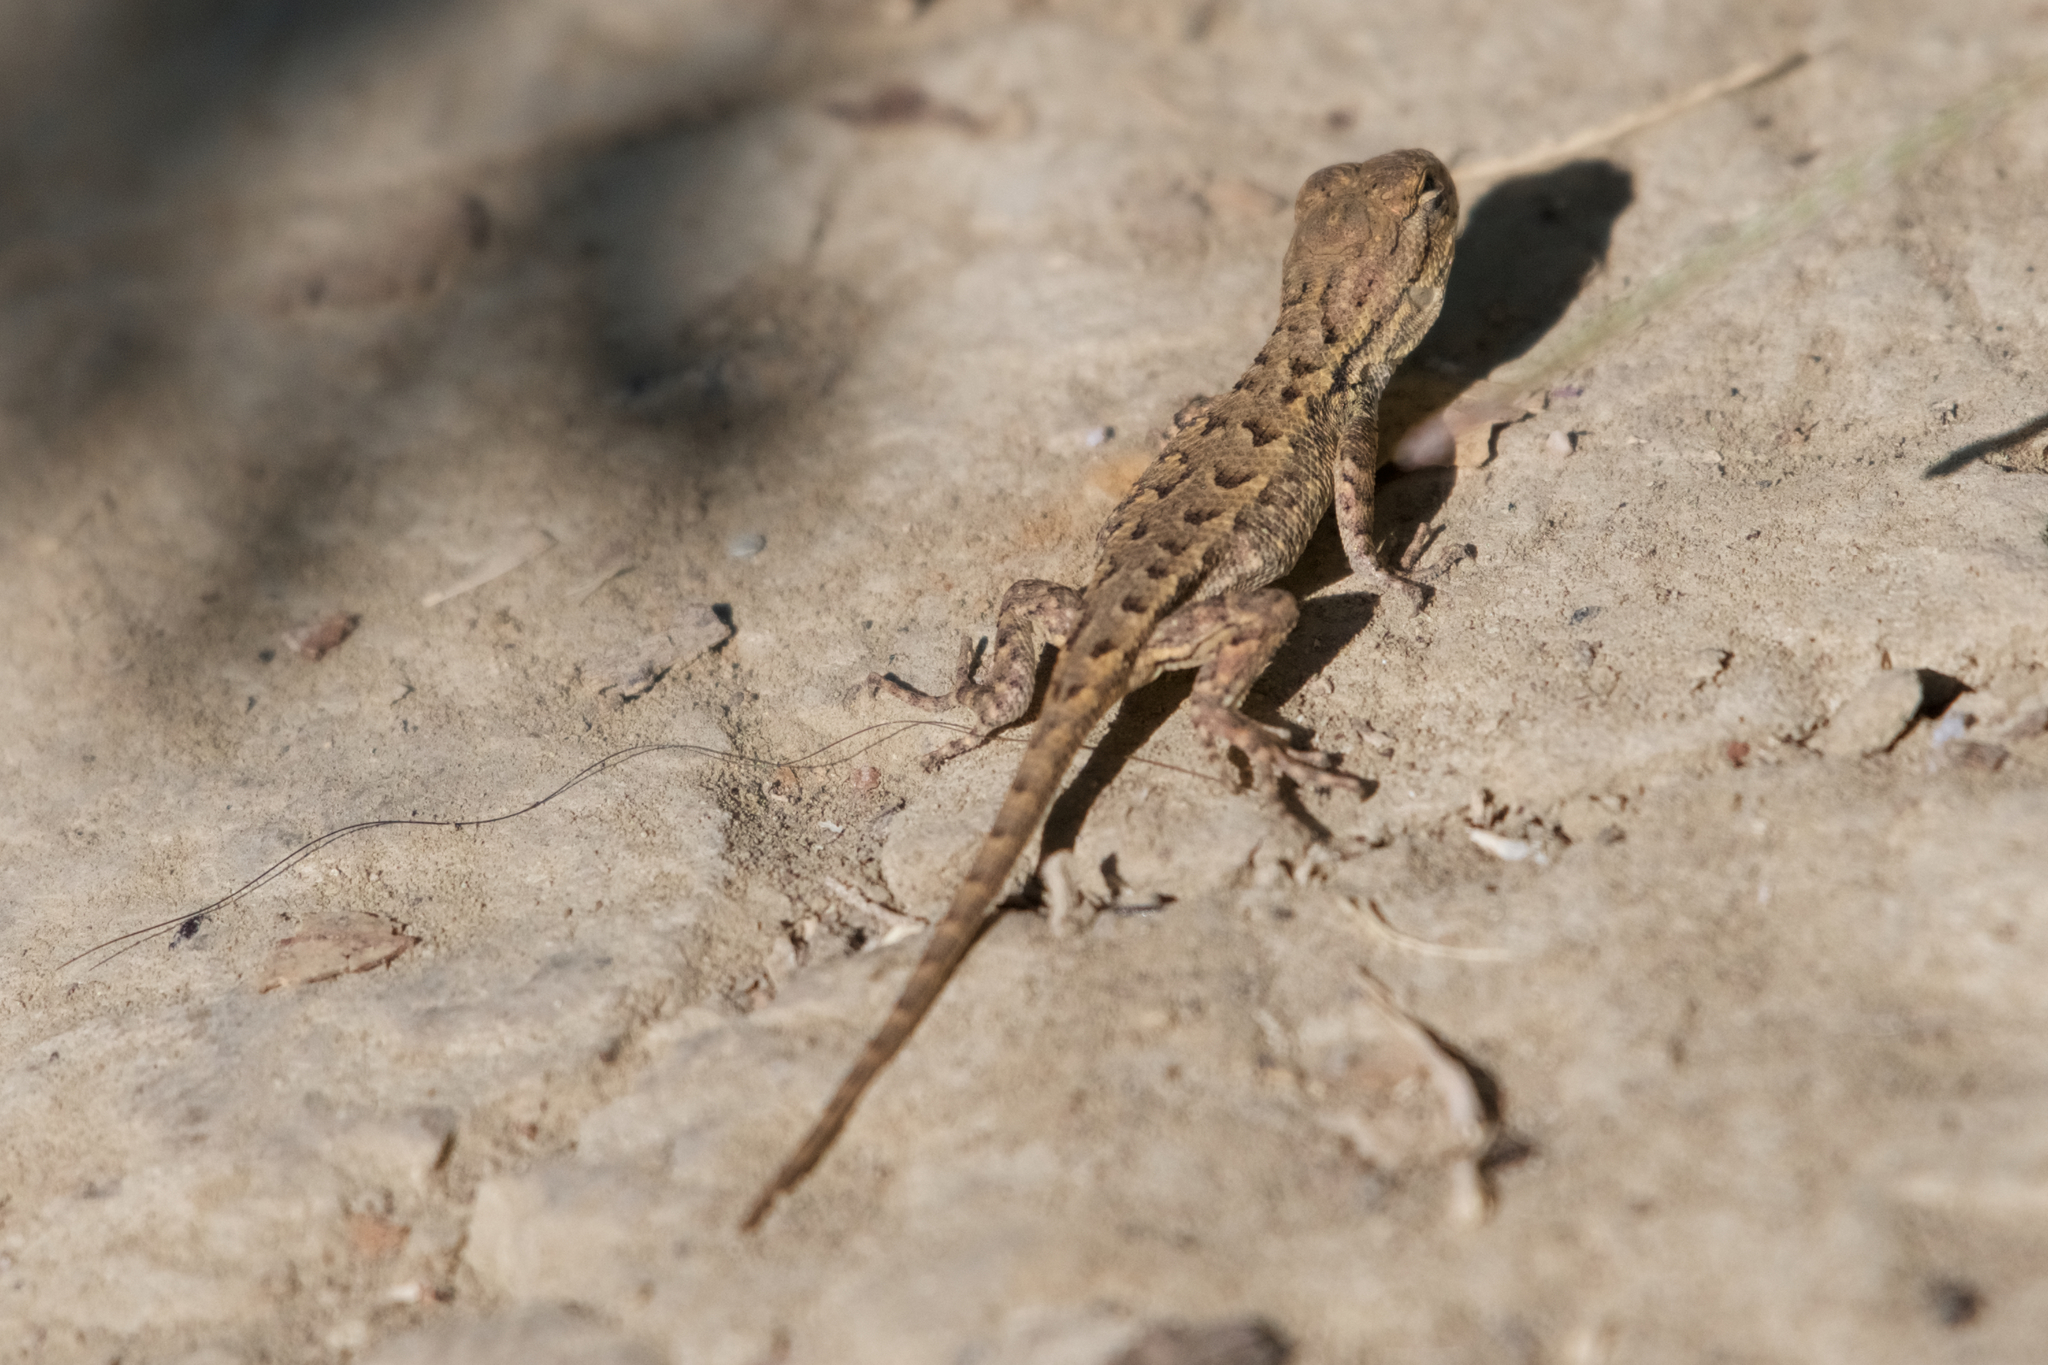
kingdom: Animalia
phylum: Chordata
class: Squamata
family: Phrynosomatidae
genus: Sceloporus
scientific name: Sceloporus occidentalis
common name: Western fence lizard
